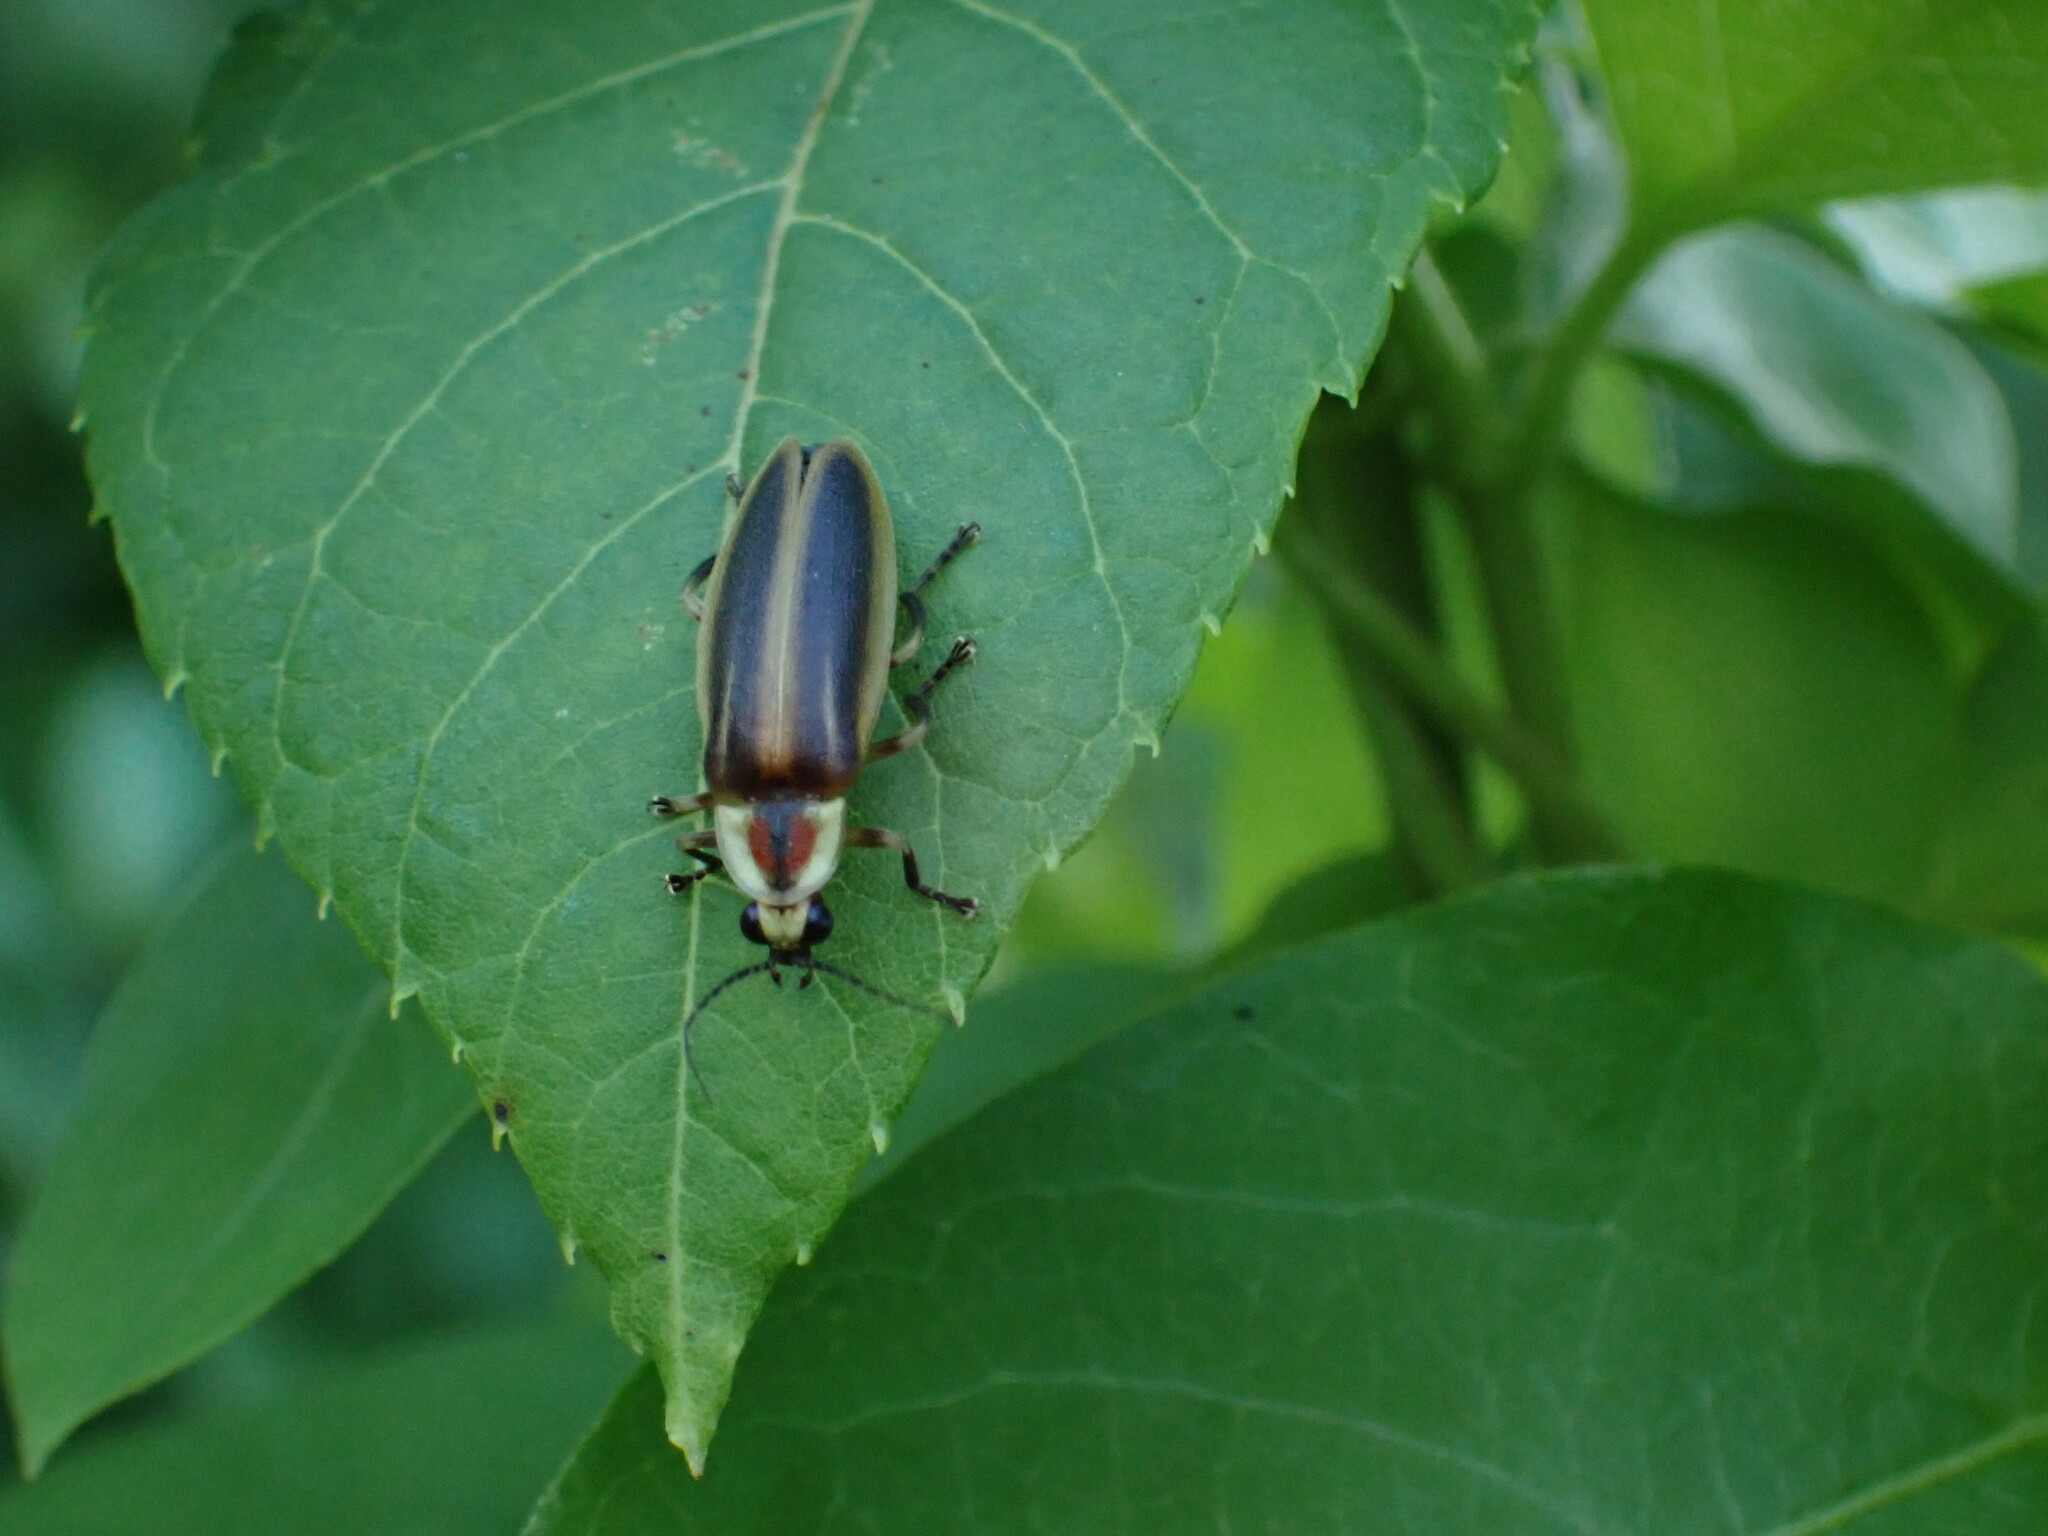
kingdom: Animalia
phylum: Arthropoda
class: Insecta
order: Coleoptera
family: Lampyridae
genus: Photuris
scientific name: Photuris
